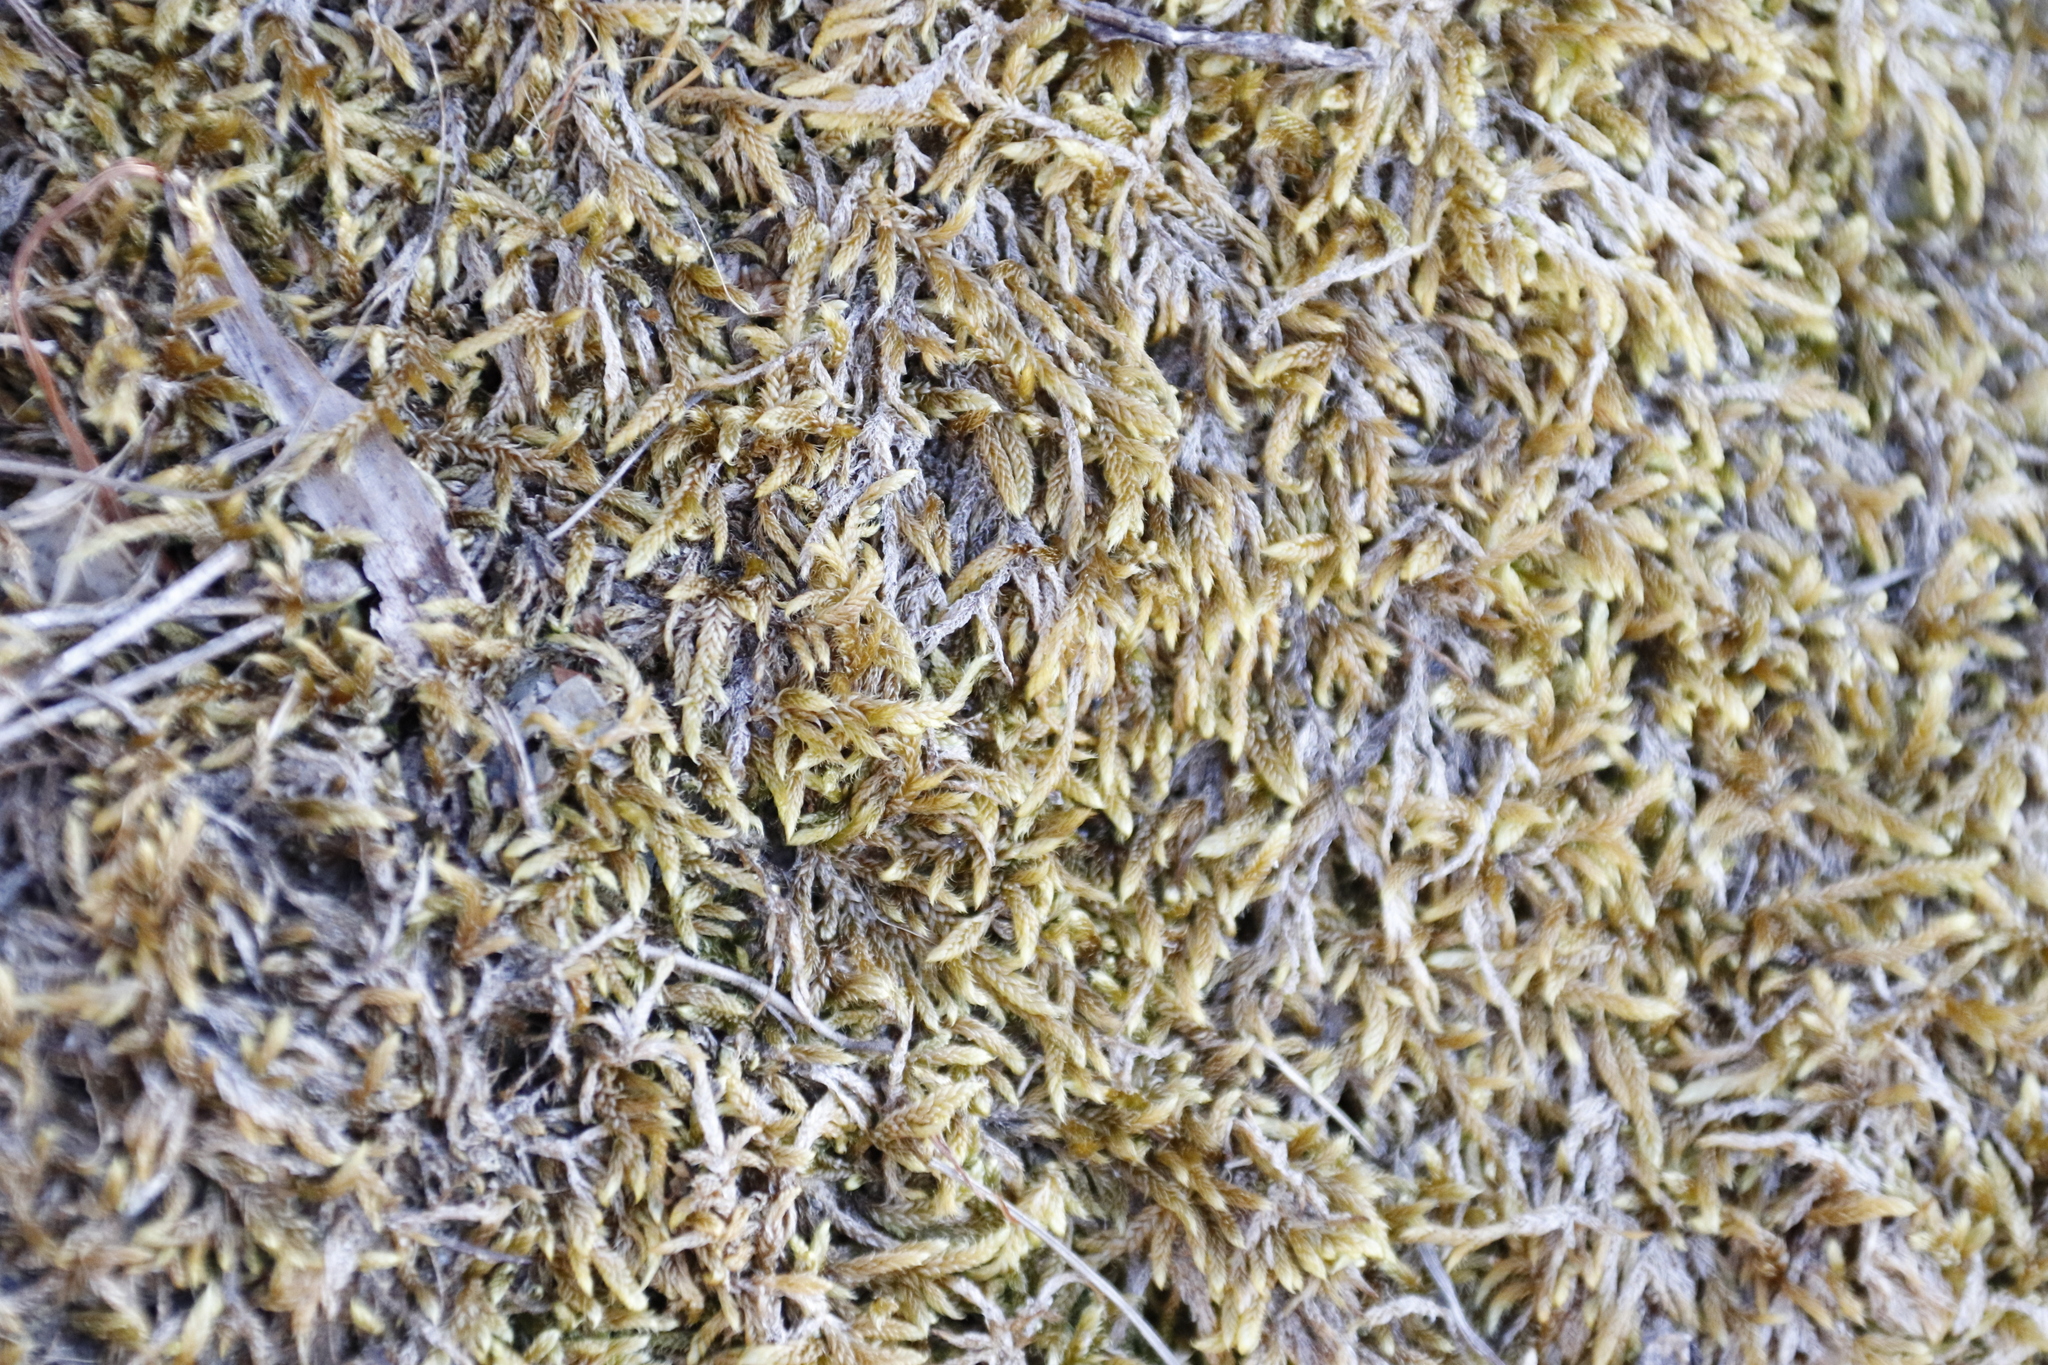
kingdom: Plantae
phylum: Bryophyta
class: Bryopsida
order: Hypnales
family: Hypnaceae
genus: Hypnum
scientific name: Hypnum cupressiforme
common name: Cypress-leaved plait-moss
